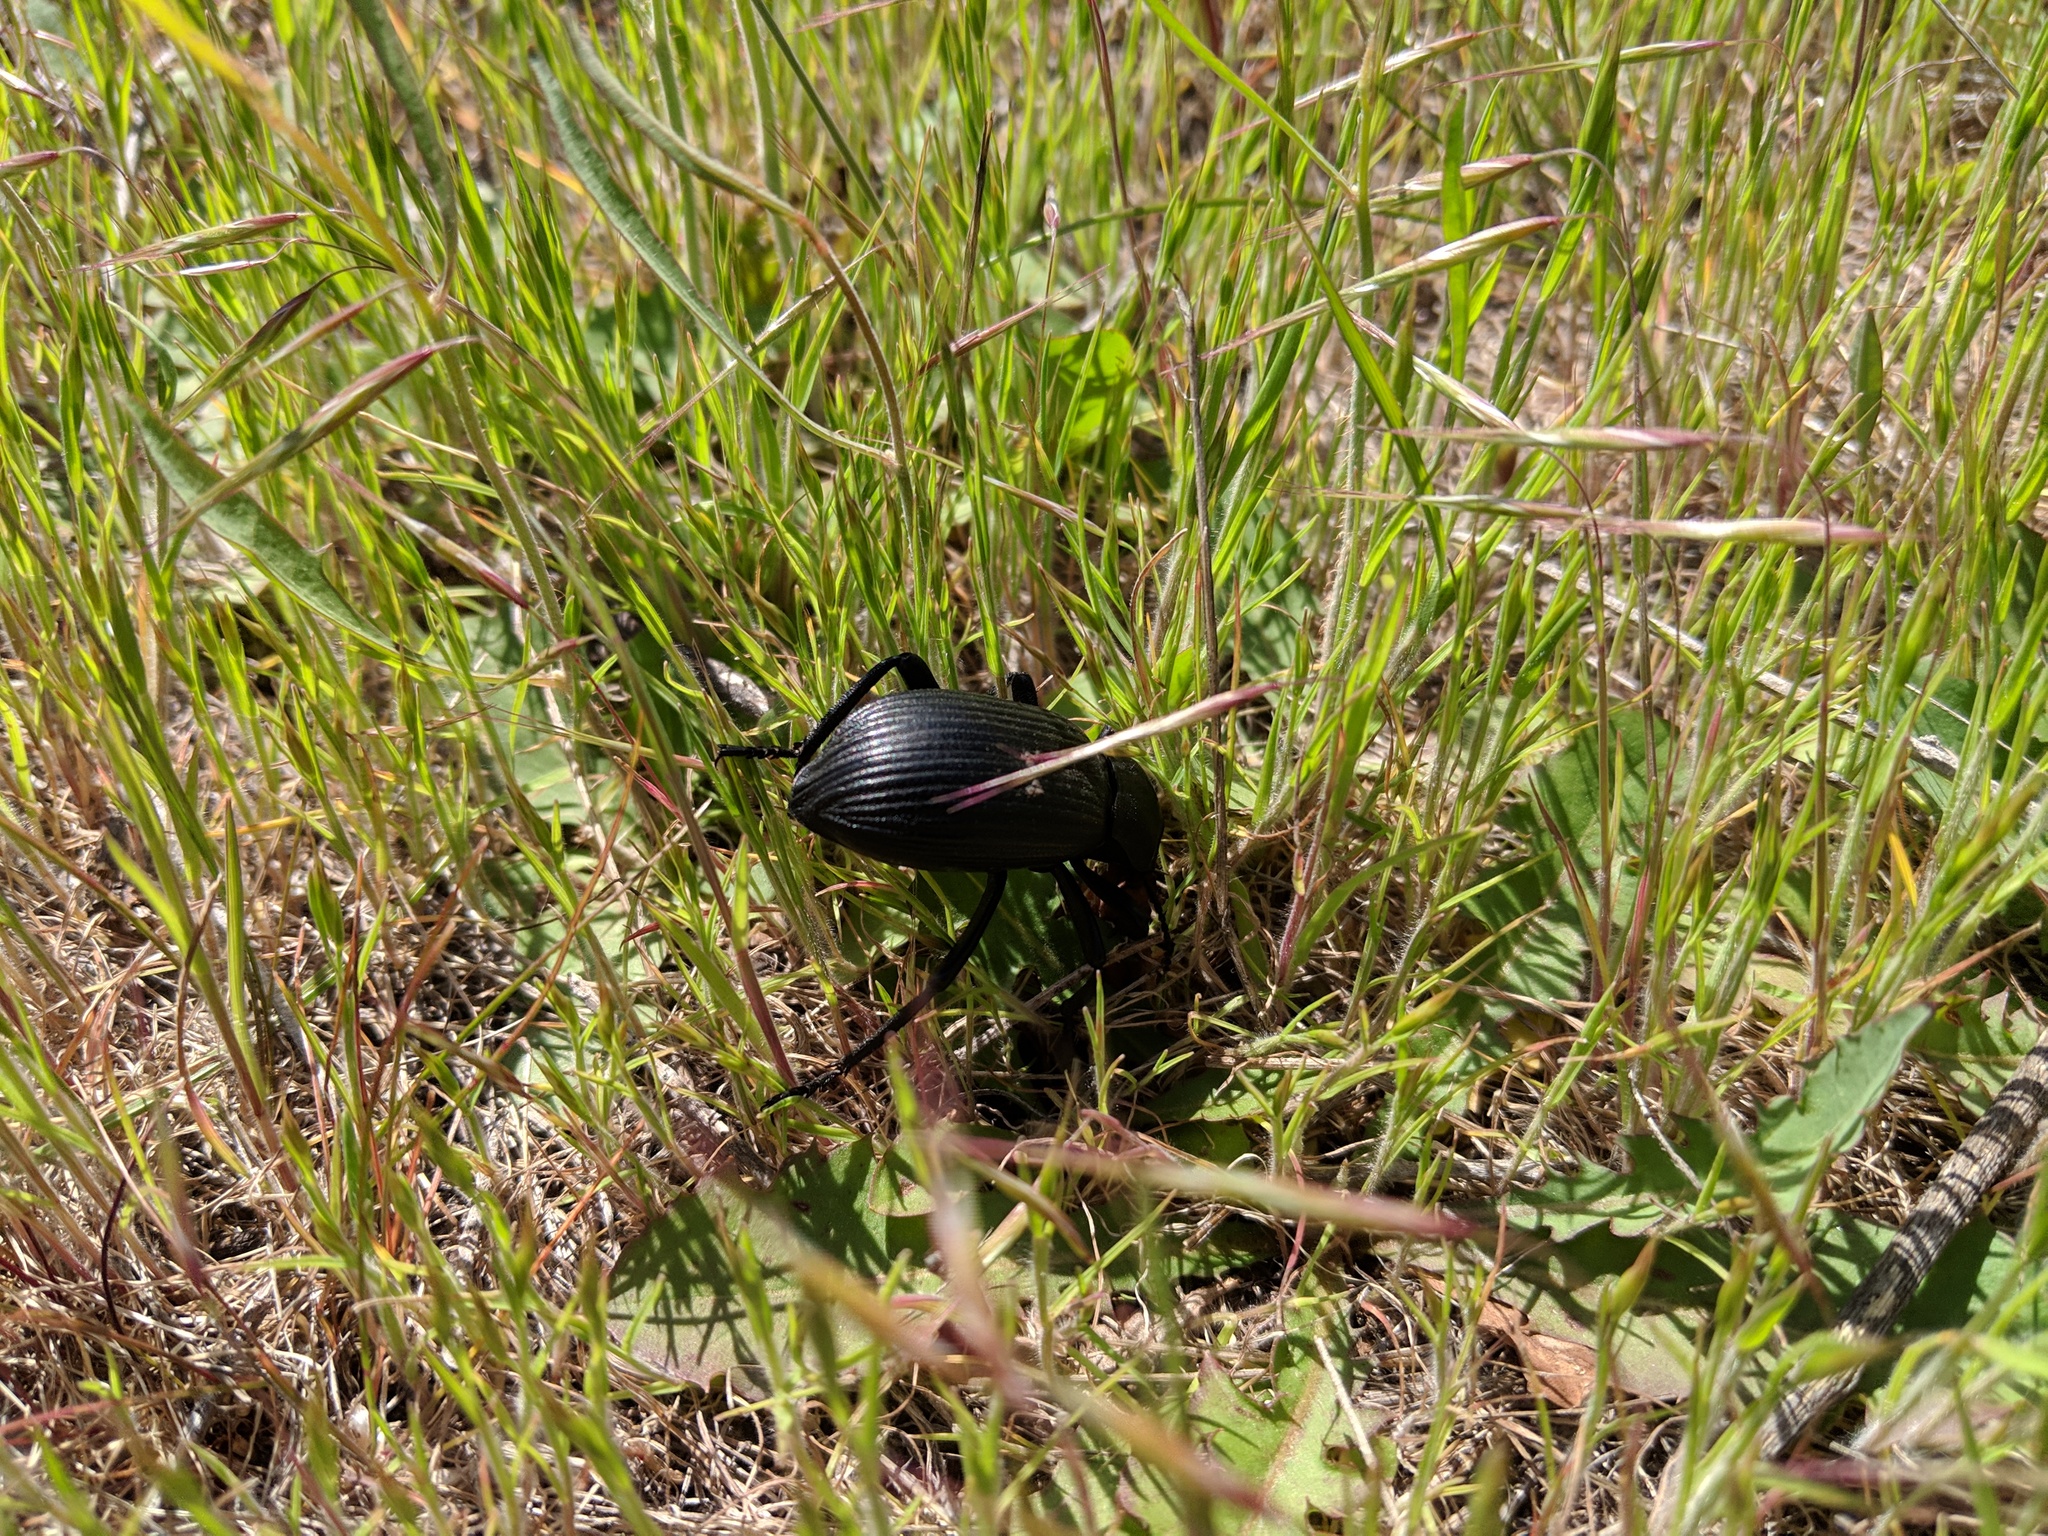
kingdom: Animalia
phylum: Arthropoda
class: Insecta
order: Coleoptera
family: Tenebrionidae
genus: Eleodes
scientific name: Eleodes obscura
